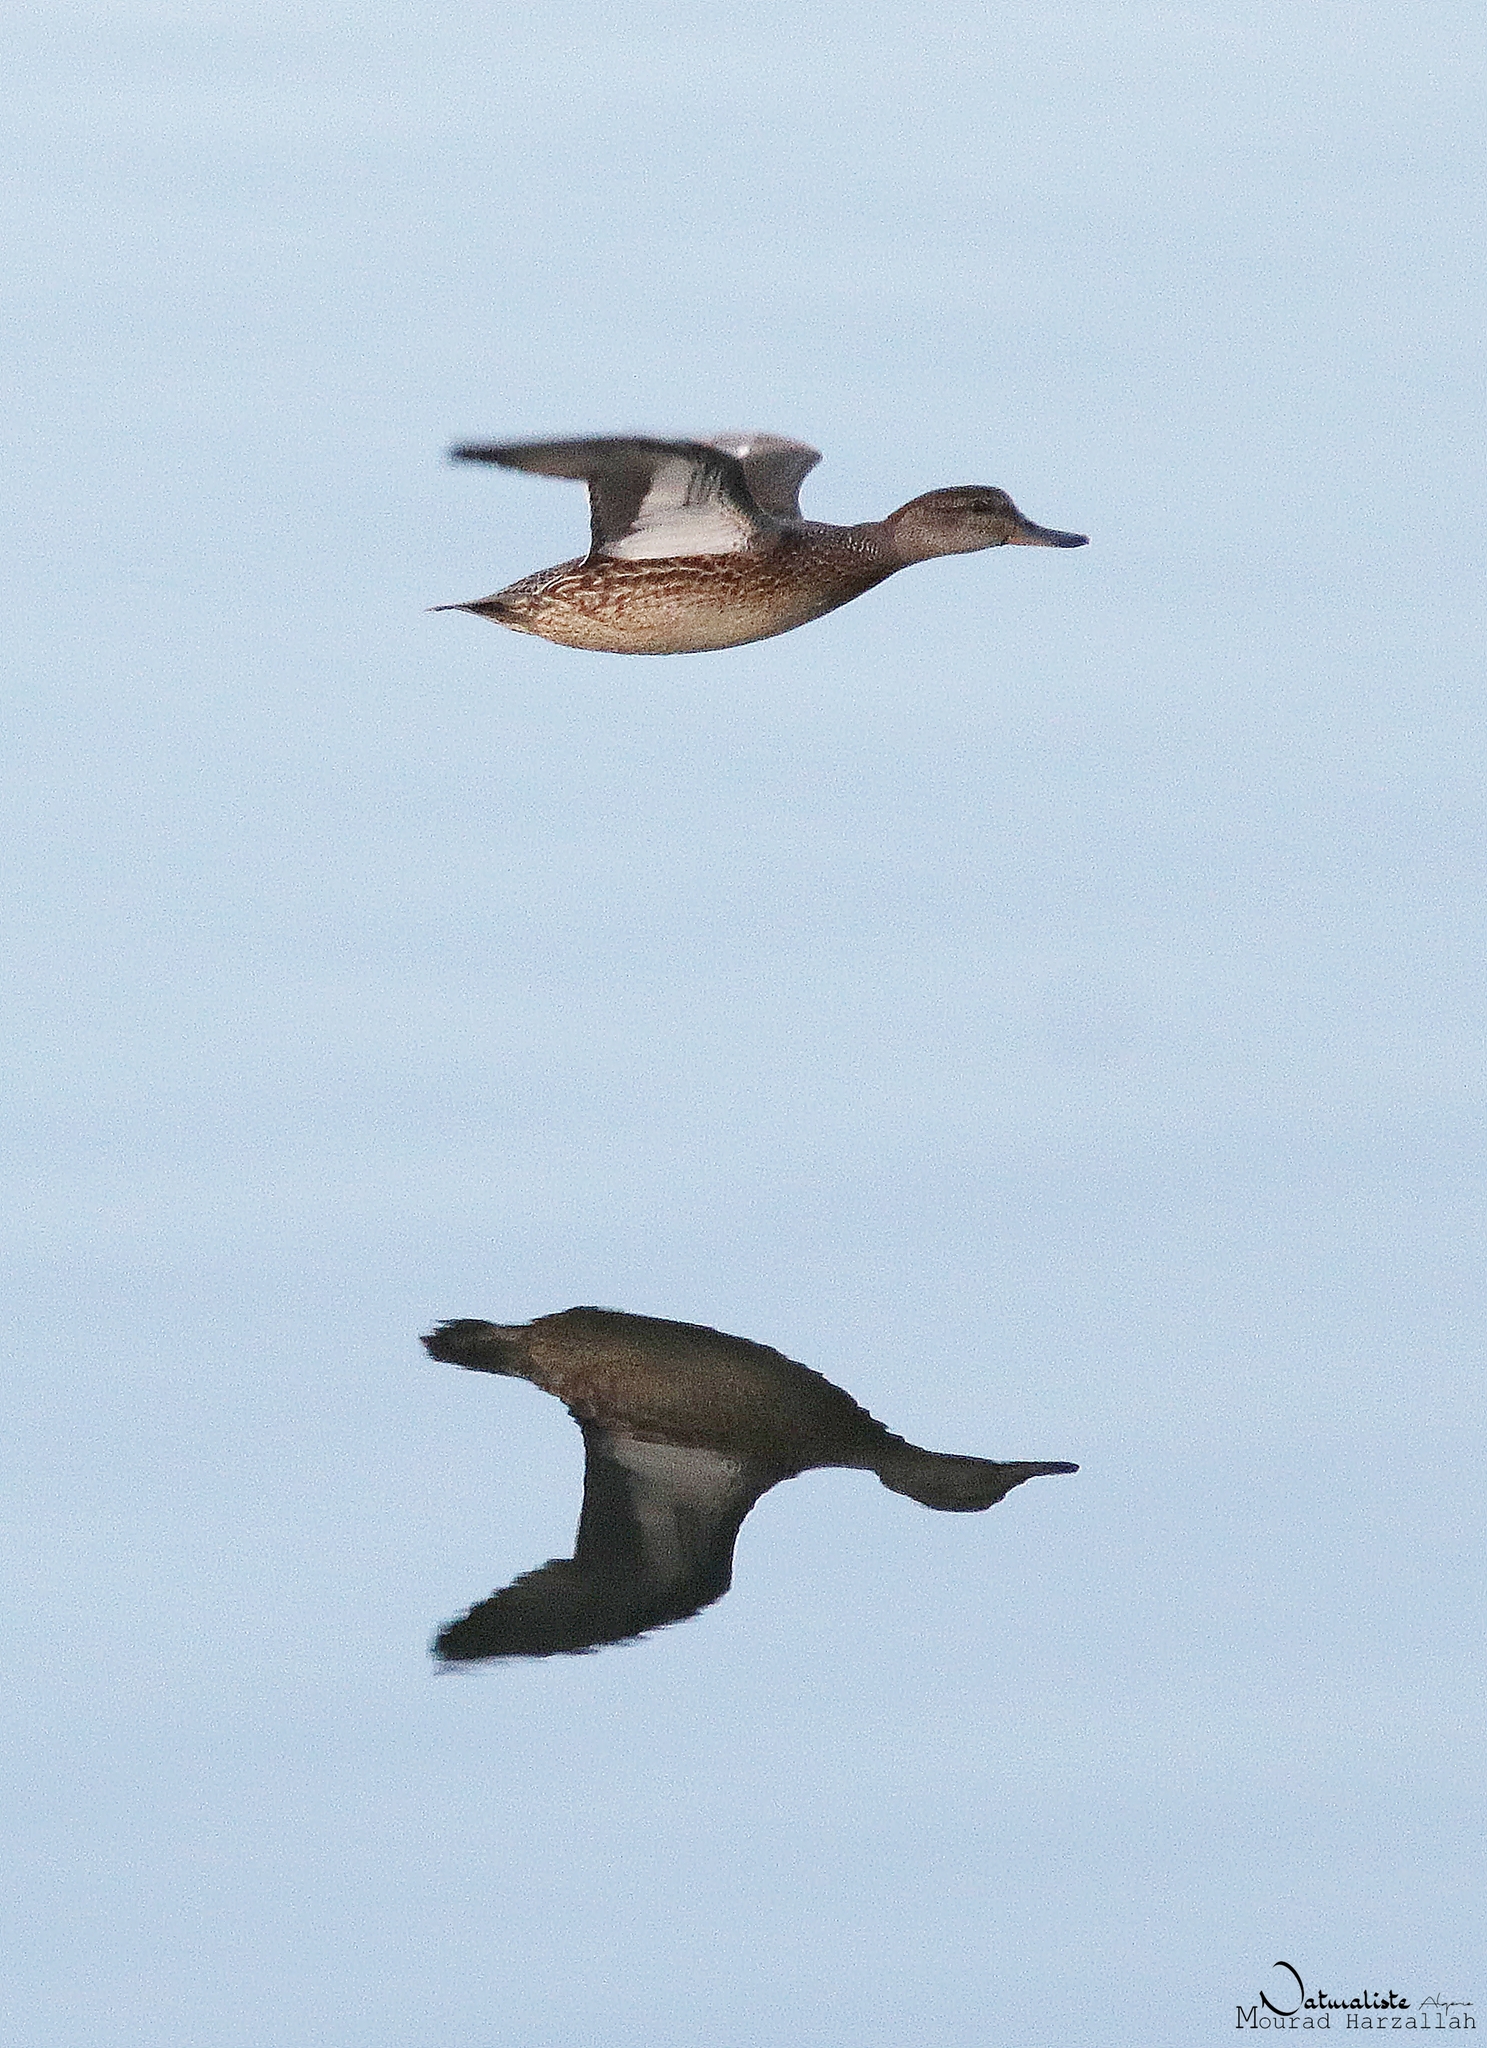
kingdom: Animalia
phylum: Chordata
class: Aves
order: Anseriformes
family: Anatidae
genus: Anas
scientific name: Anas crecca
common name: Eurasian teal
